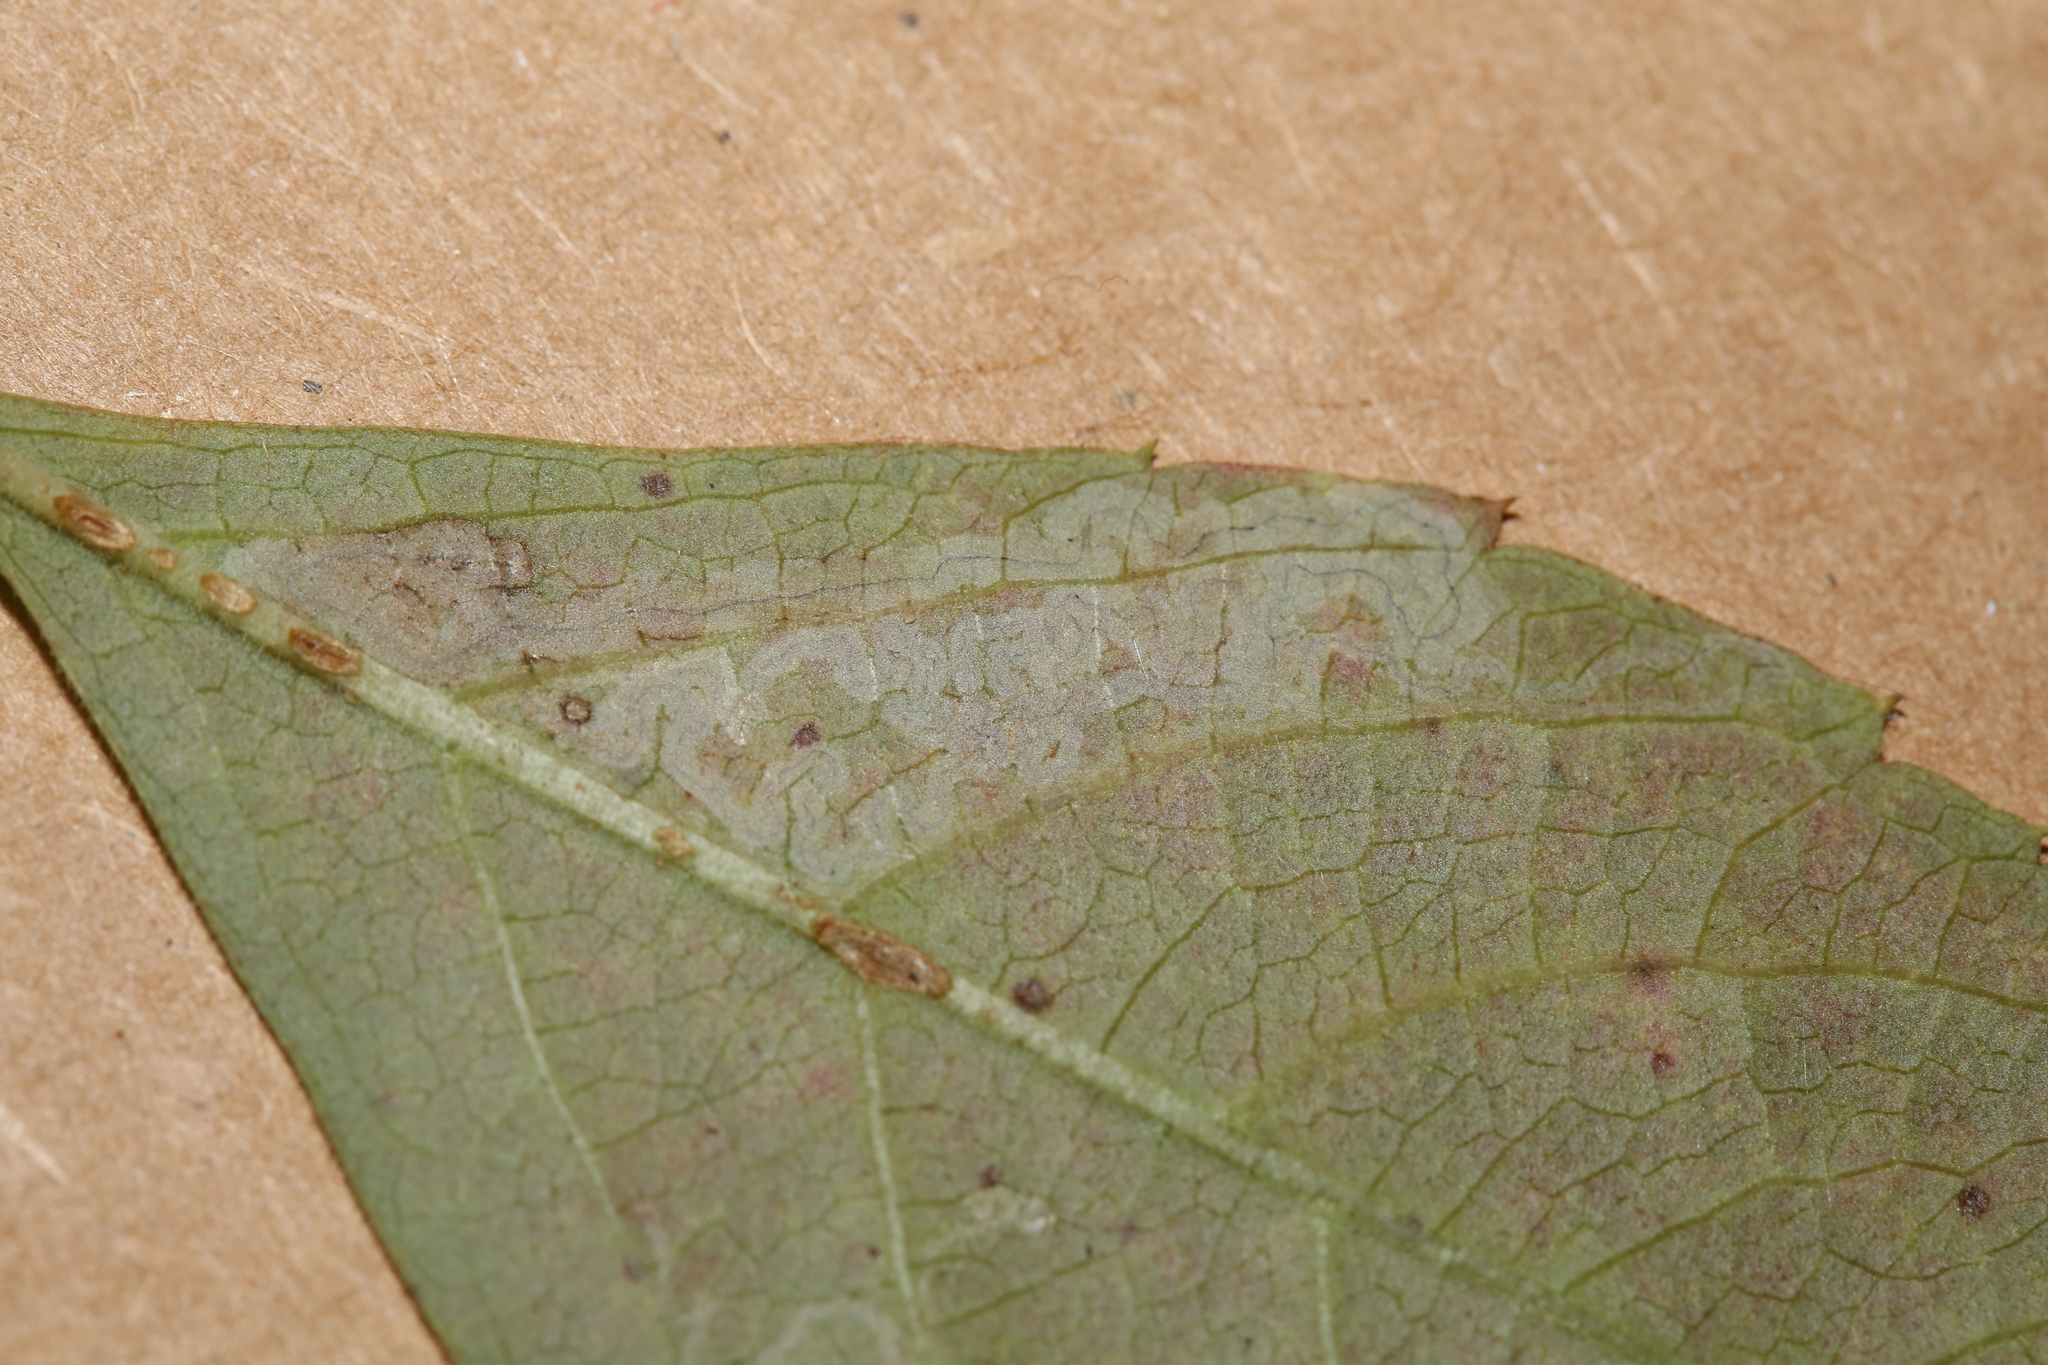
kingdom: Animalia
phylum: Arthropoda
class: Insecta
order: Lepidoptera
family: Gracillariidae
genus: Phyllocnistis
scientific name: Phyllocnistis ampelopsiella
